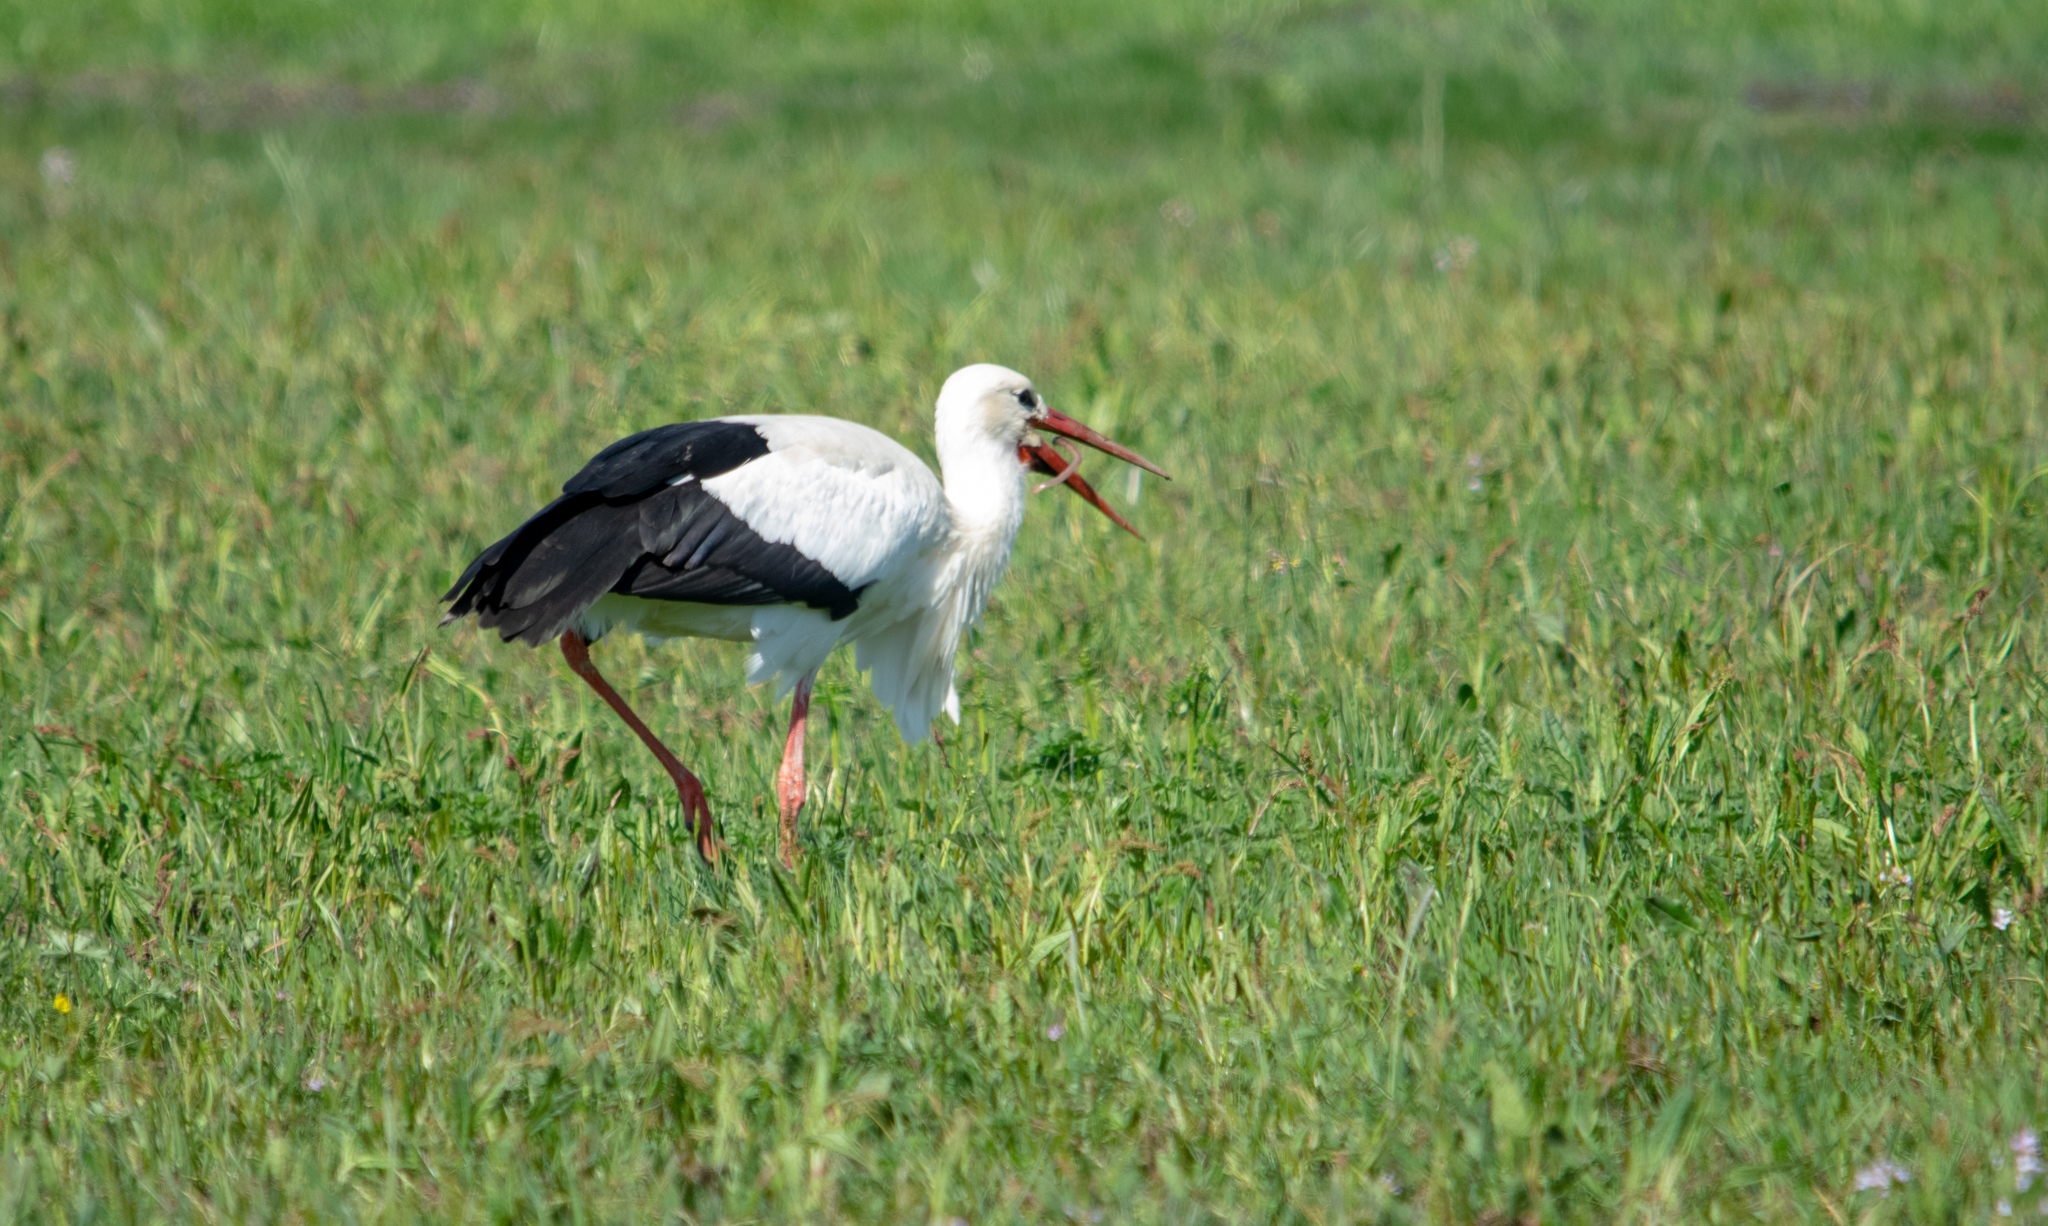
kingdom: Animalia
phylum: Chordata
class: Aves
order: Ciconiiformes
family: Ciconiidae
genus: Ciconia
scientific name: Ciconia ciconia
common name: White stork
